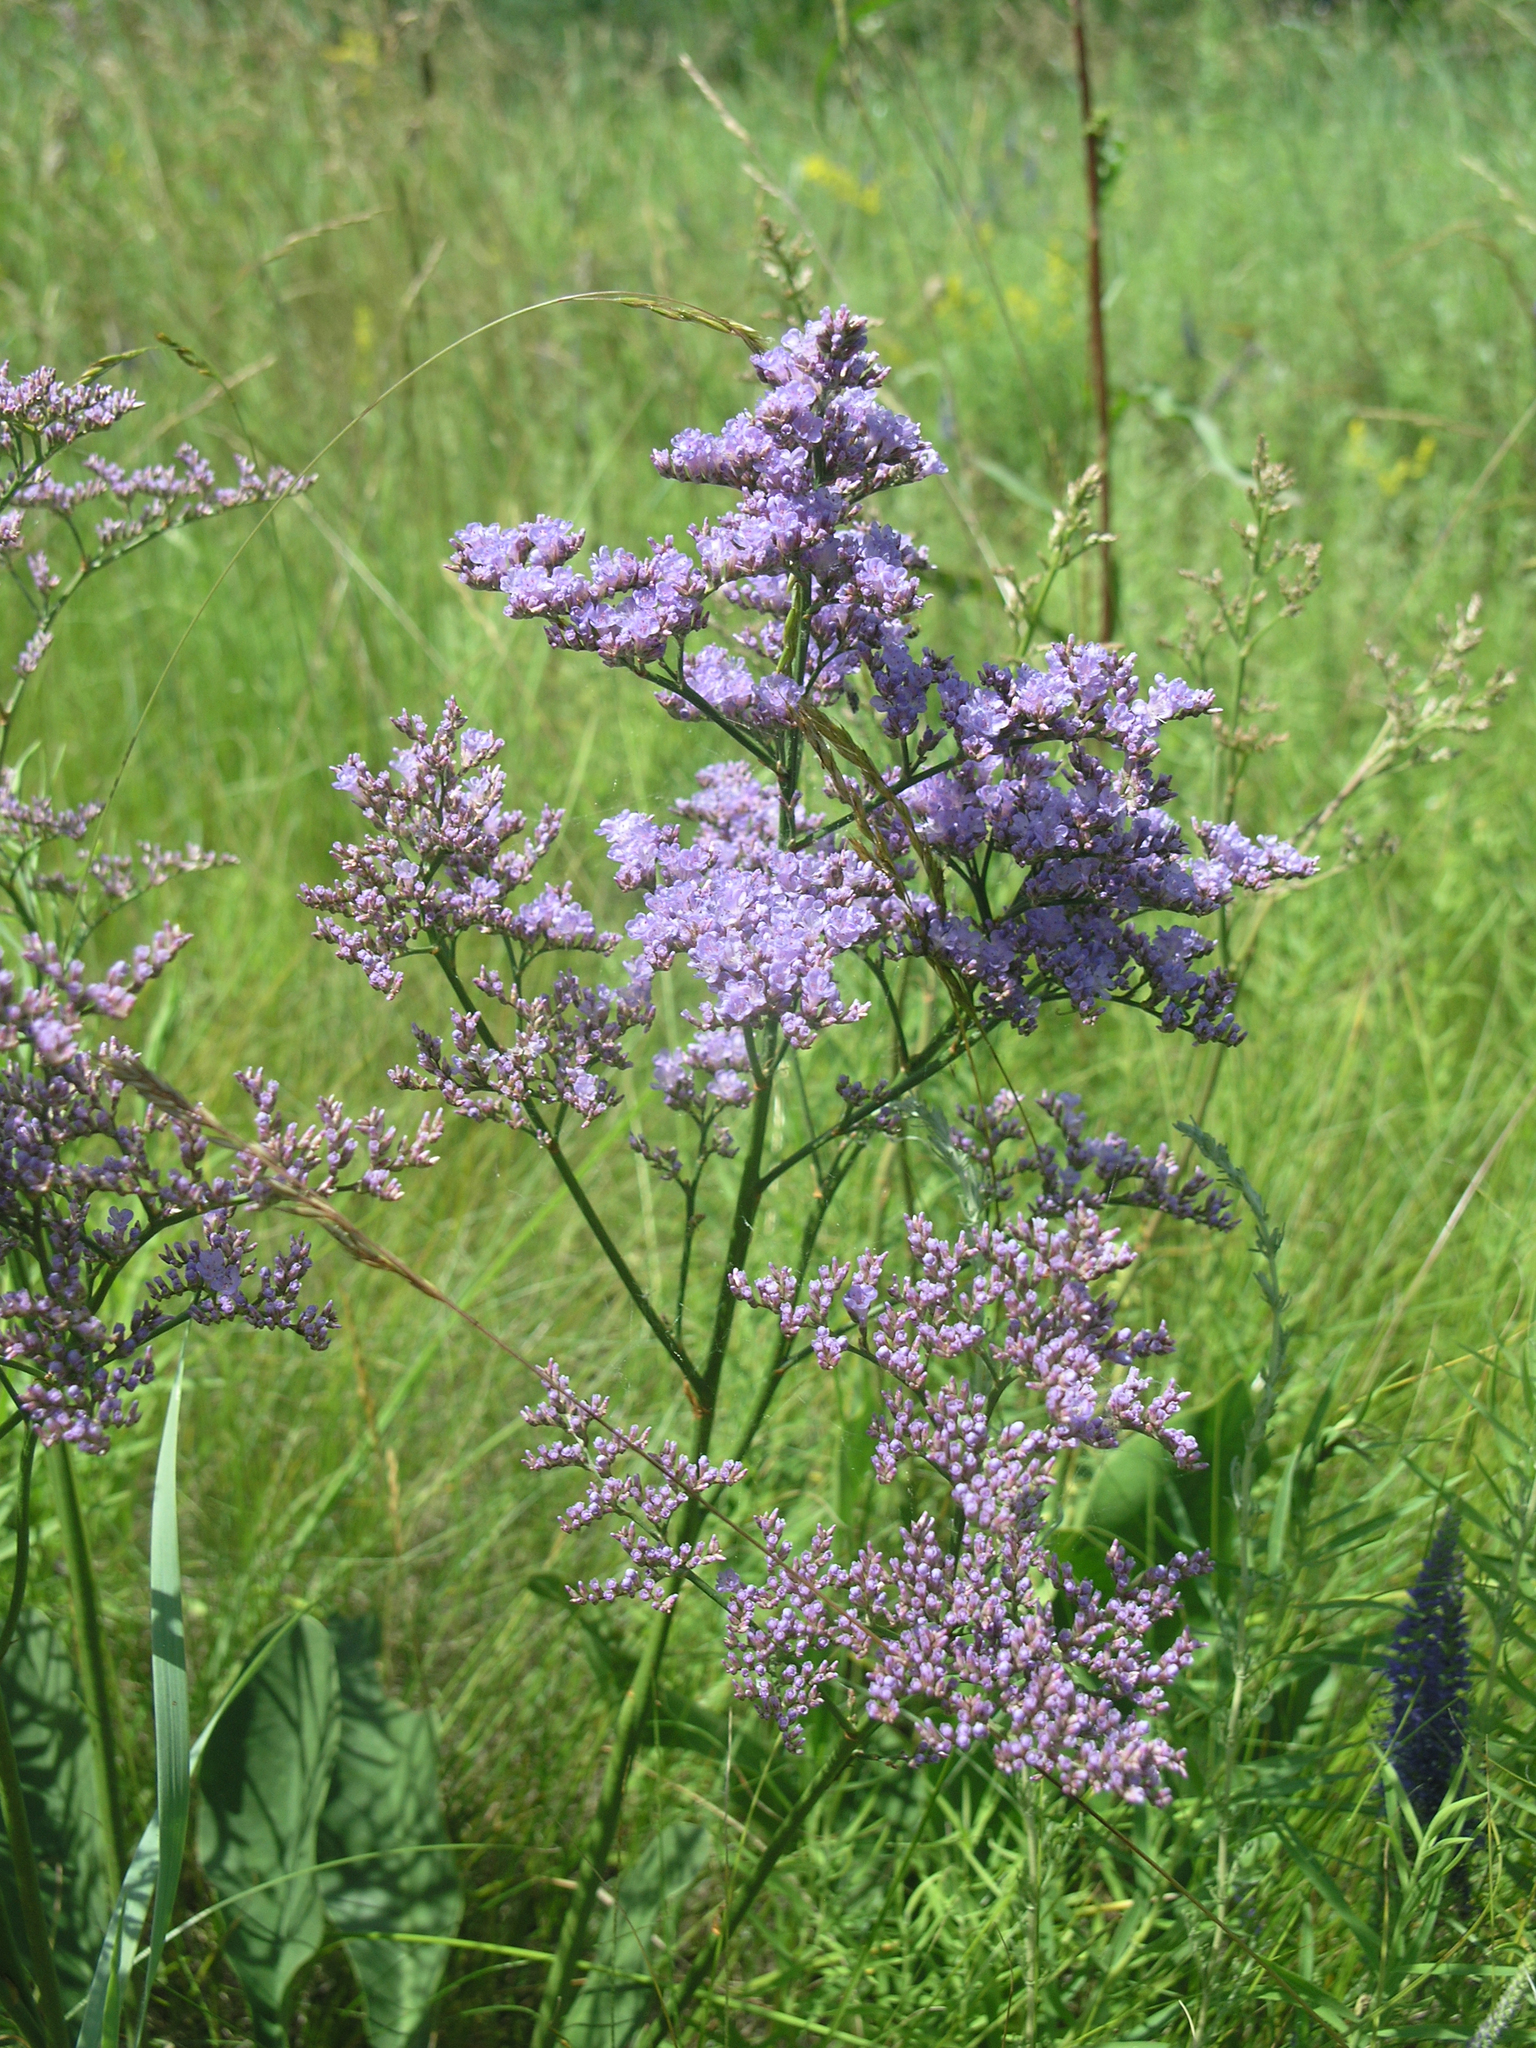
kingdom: Plantae
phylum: Tracheophyta
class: Magnoliopsida
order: Caryophyllales
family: Plumbaginaceae
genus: Limonium
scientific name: Limonium gmelini
